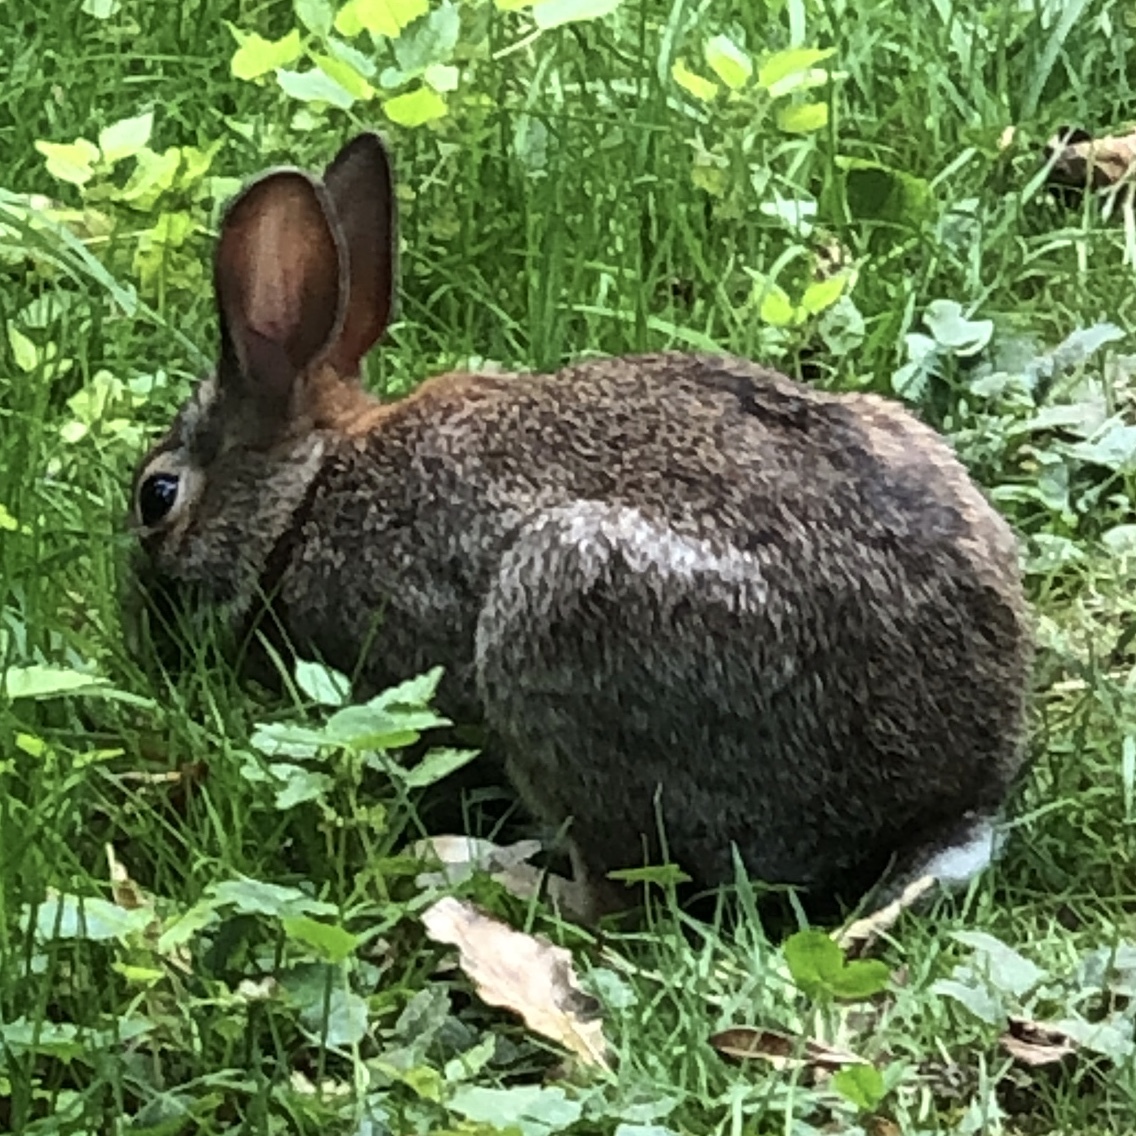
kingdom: Animalia
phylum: Chordata
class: Mammalia
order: Lagomorpha
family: Leporidae
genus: Sylvilagus
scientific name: Sylvilagus floridanus
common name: Eastern cottontail
